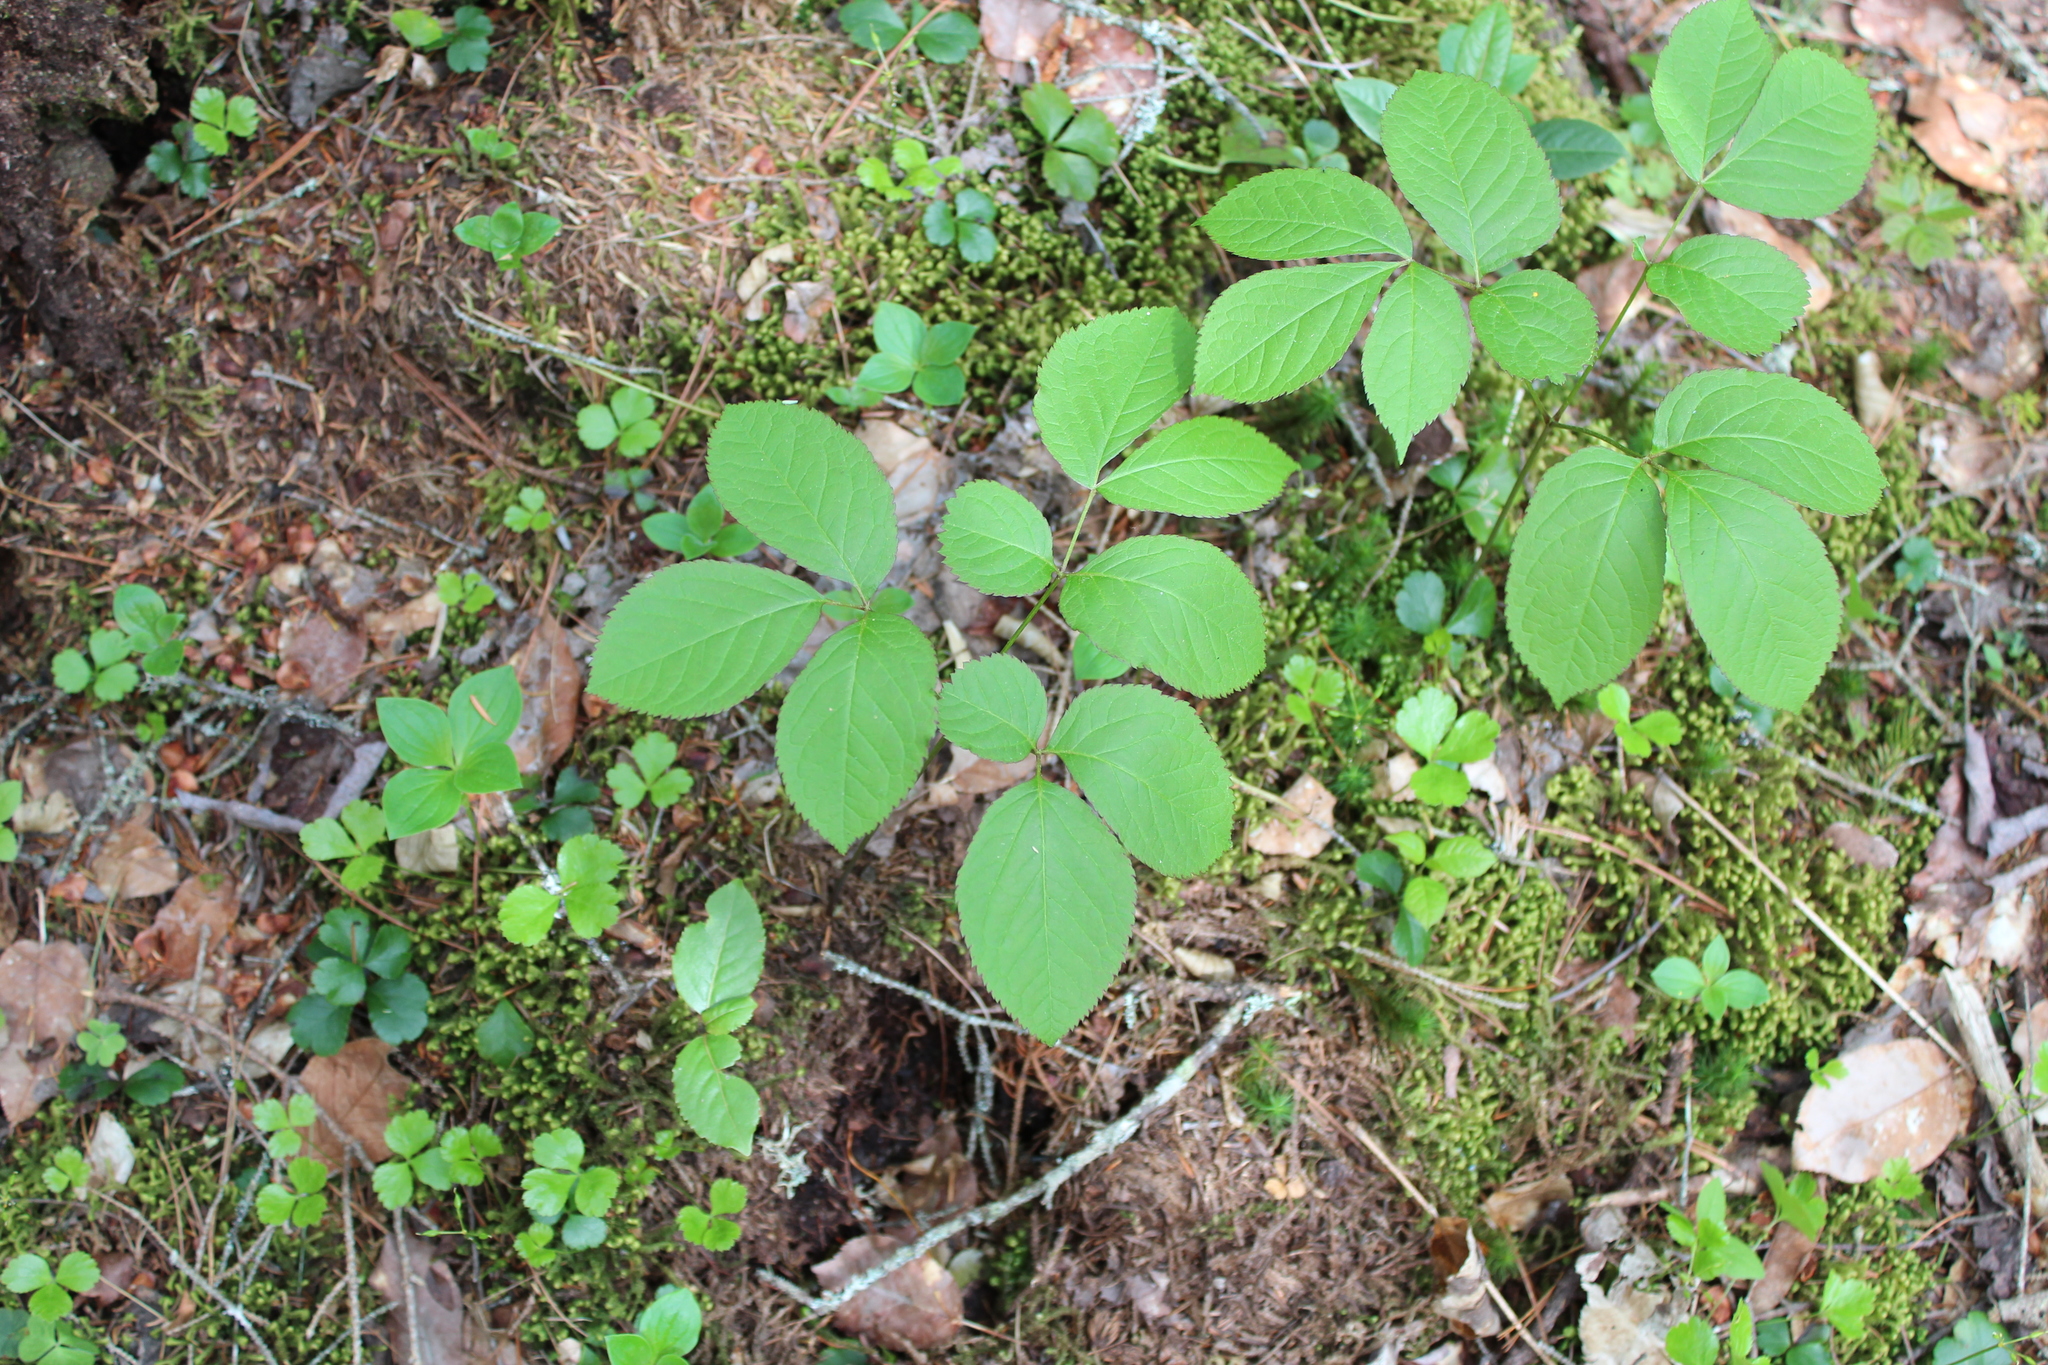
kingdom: Plantae
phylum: Tracheophyta
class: Magnoliopsida
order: Apiales
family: Araliaceae
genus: Aralia
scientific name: Aralia nudicaulis
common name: Wild sarsaparilla
